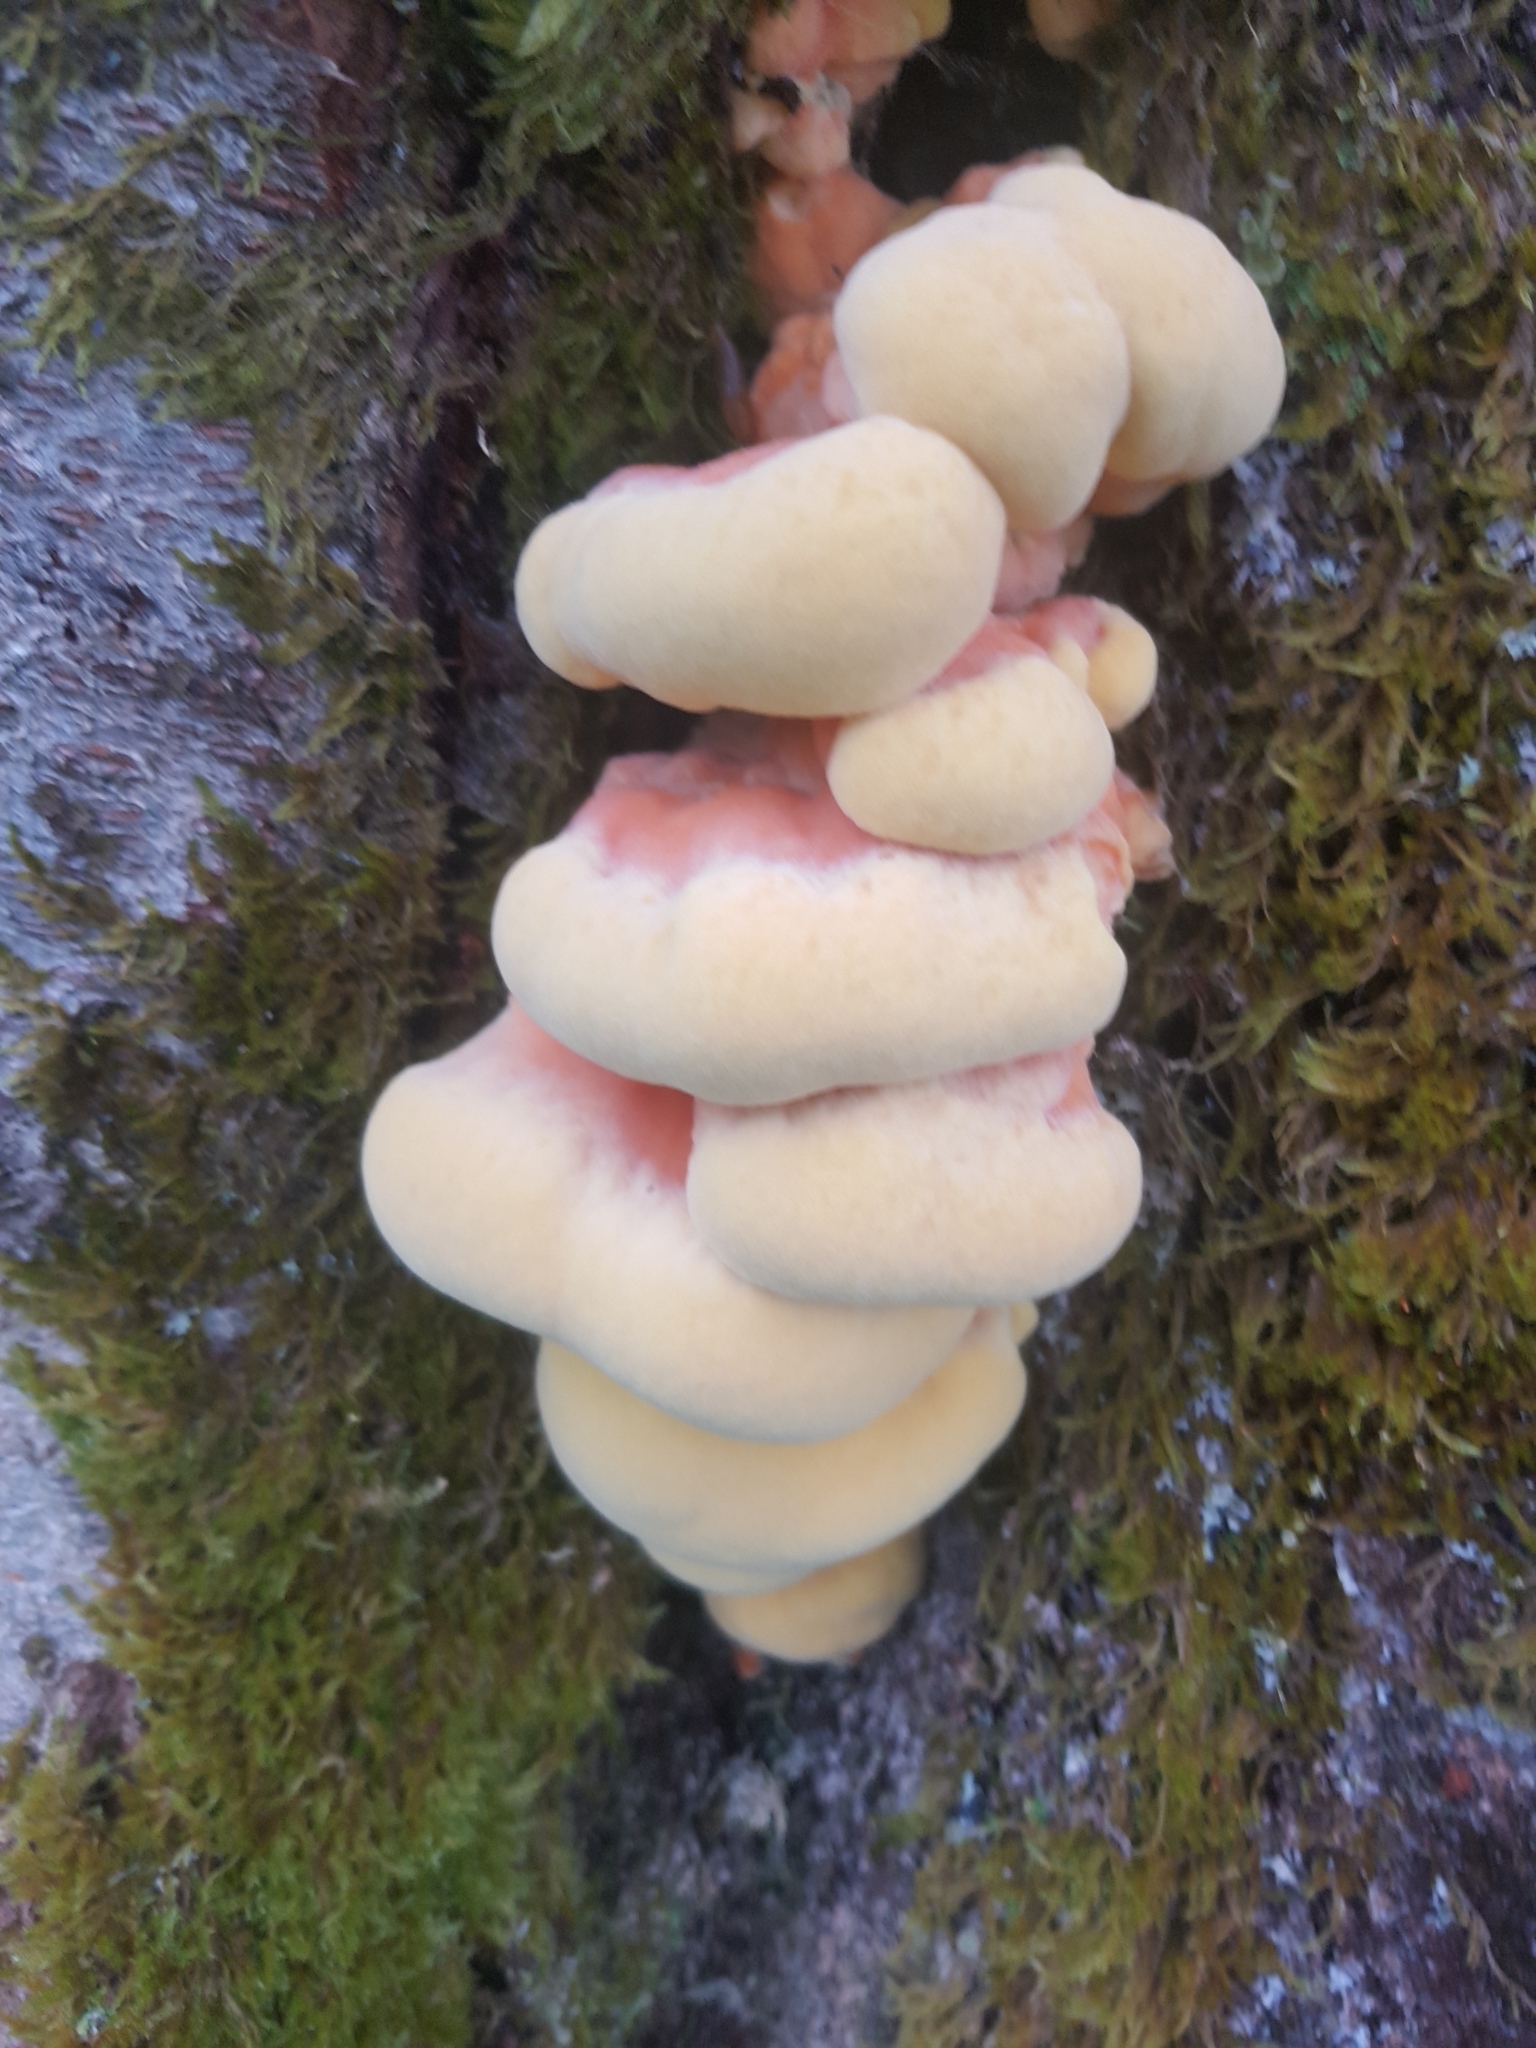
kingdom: Fungi
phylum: Basidiomycota
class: Agaricomycetes
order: Polyporales
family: Laetiporaceae
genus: Laetiporus
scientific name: Laetiporus sulphureus
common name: Chicken of the woods
